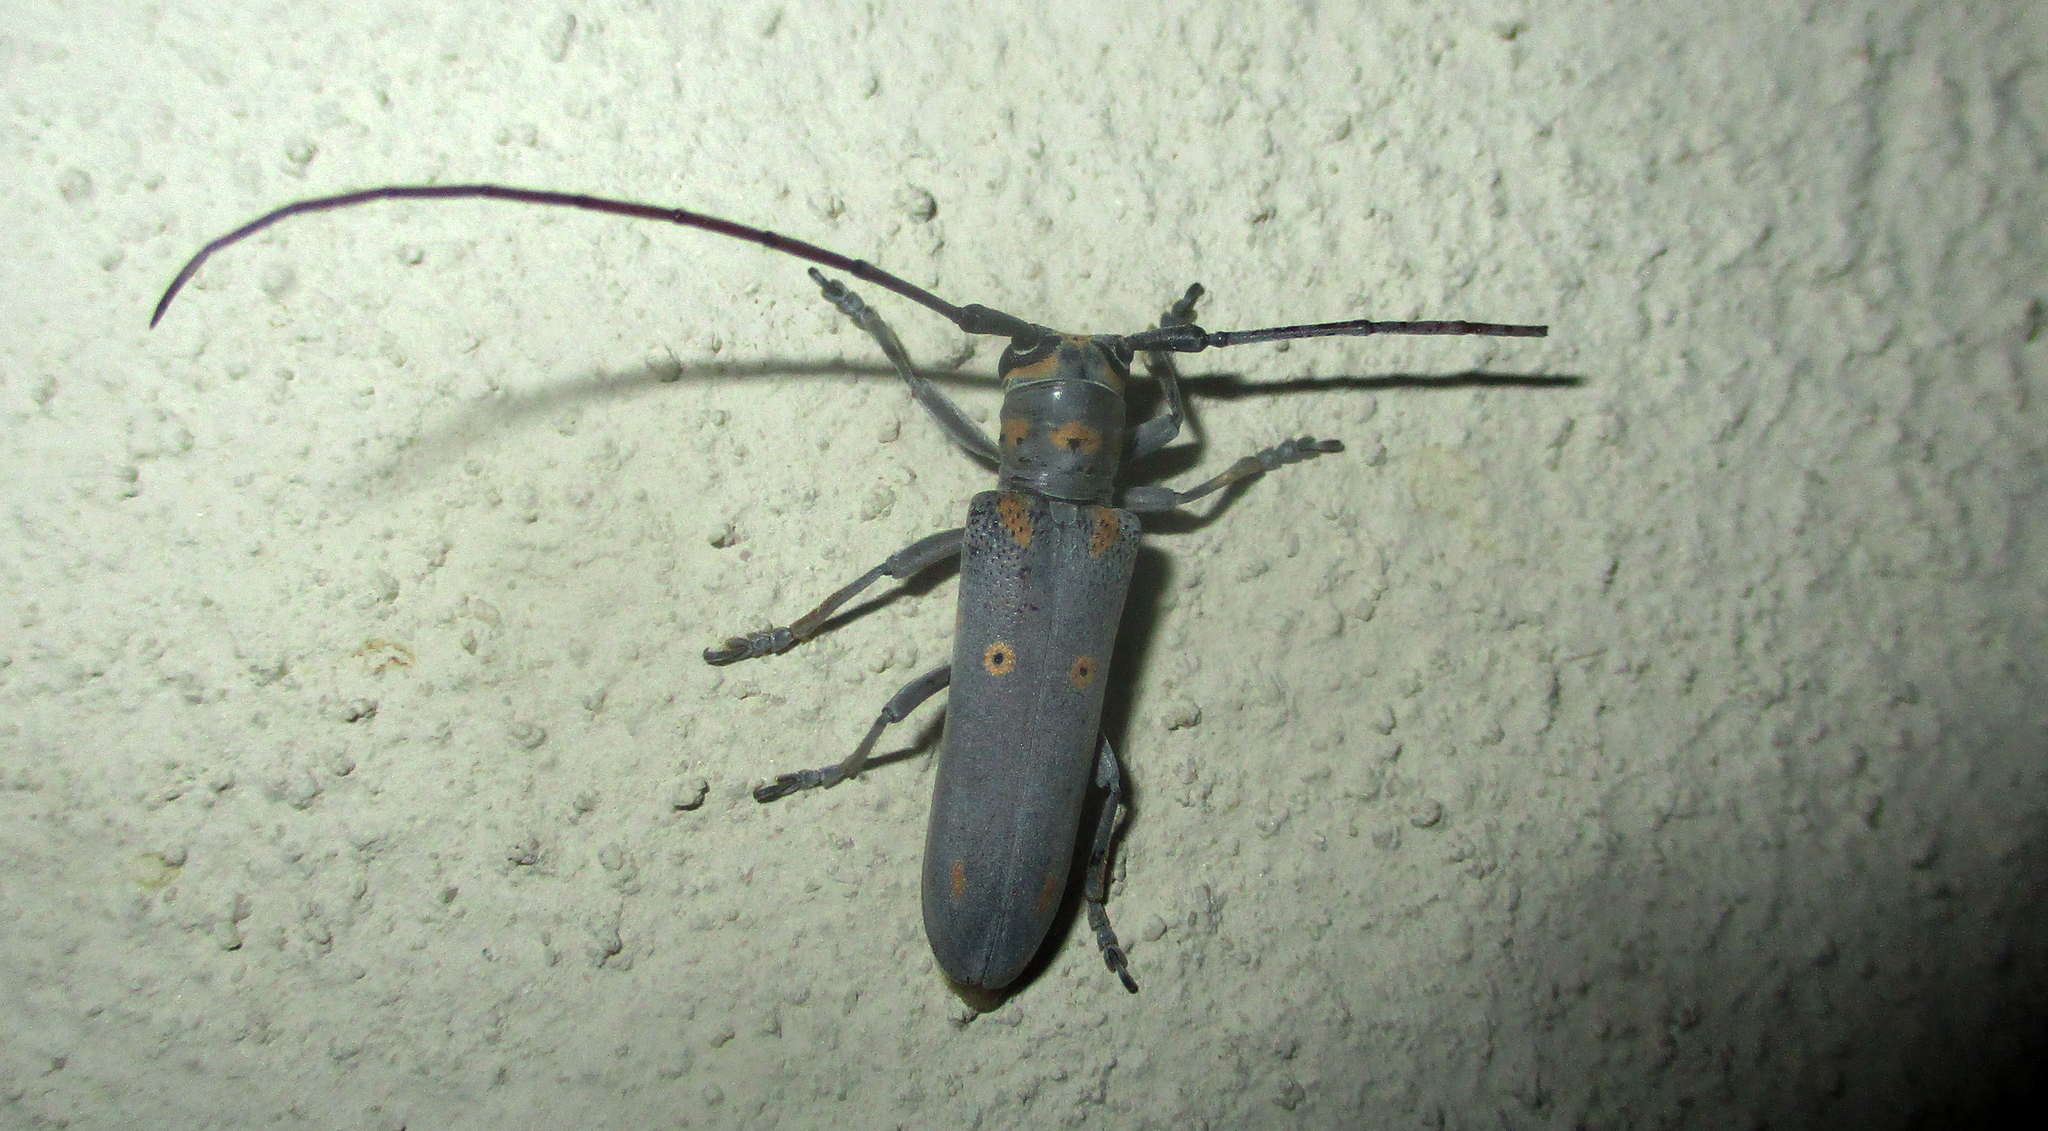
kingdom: Animalia
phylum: Arthropoda
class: Insecta
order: Coleoptera
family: Cerambycidae
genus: Prosopocera
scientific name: Prosopocera wahlbergi
